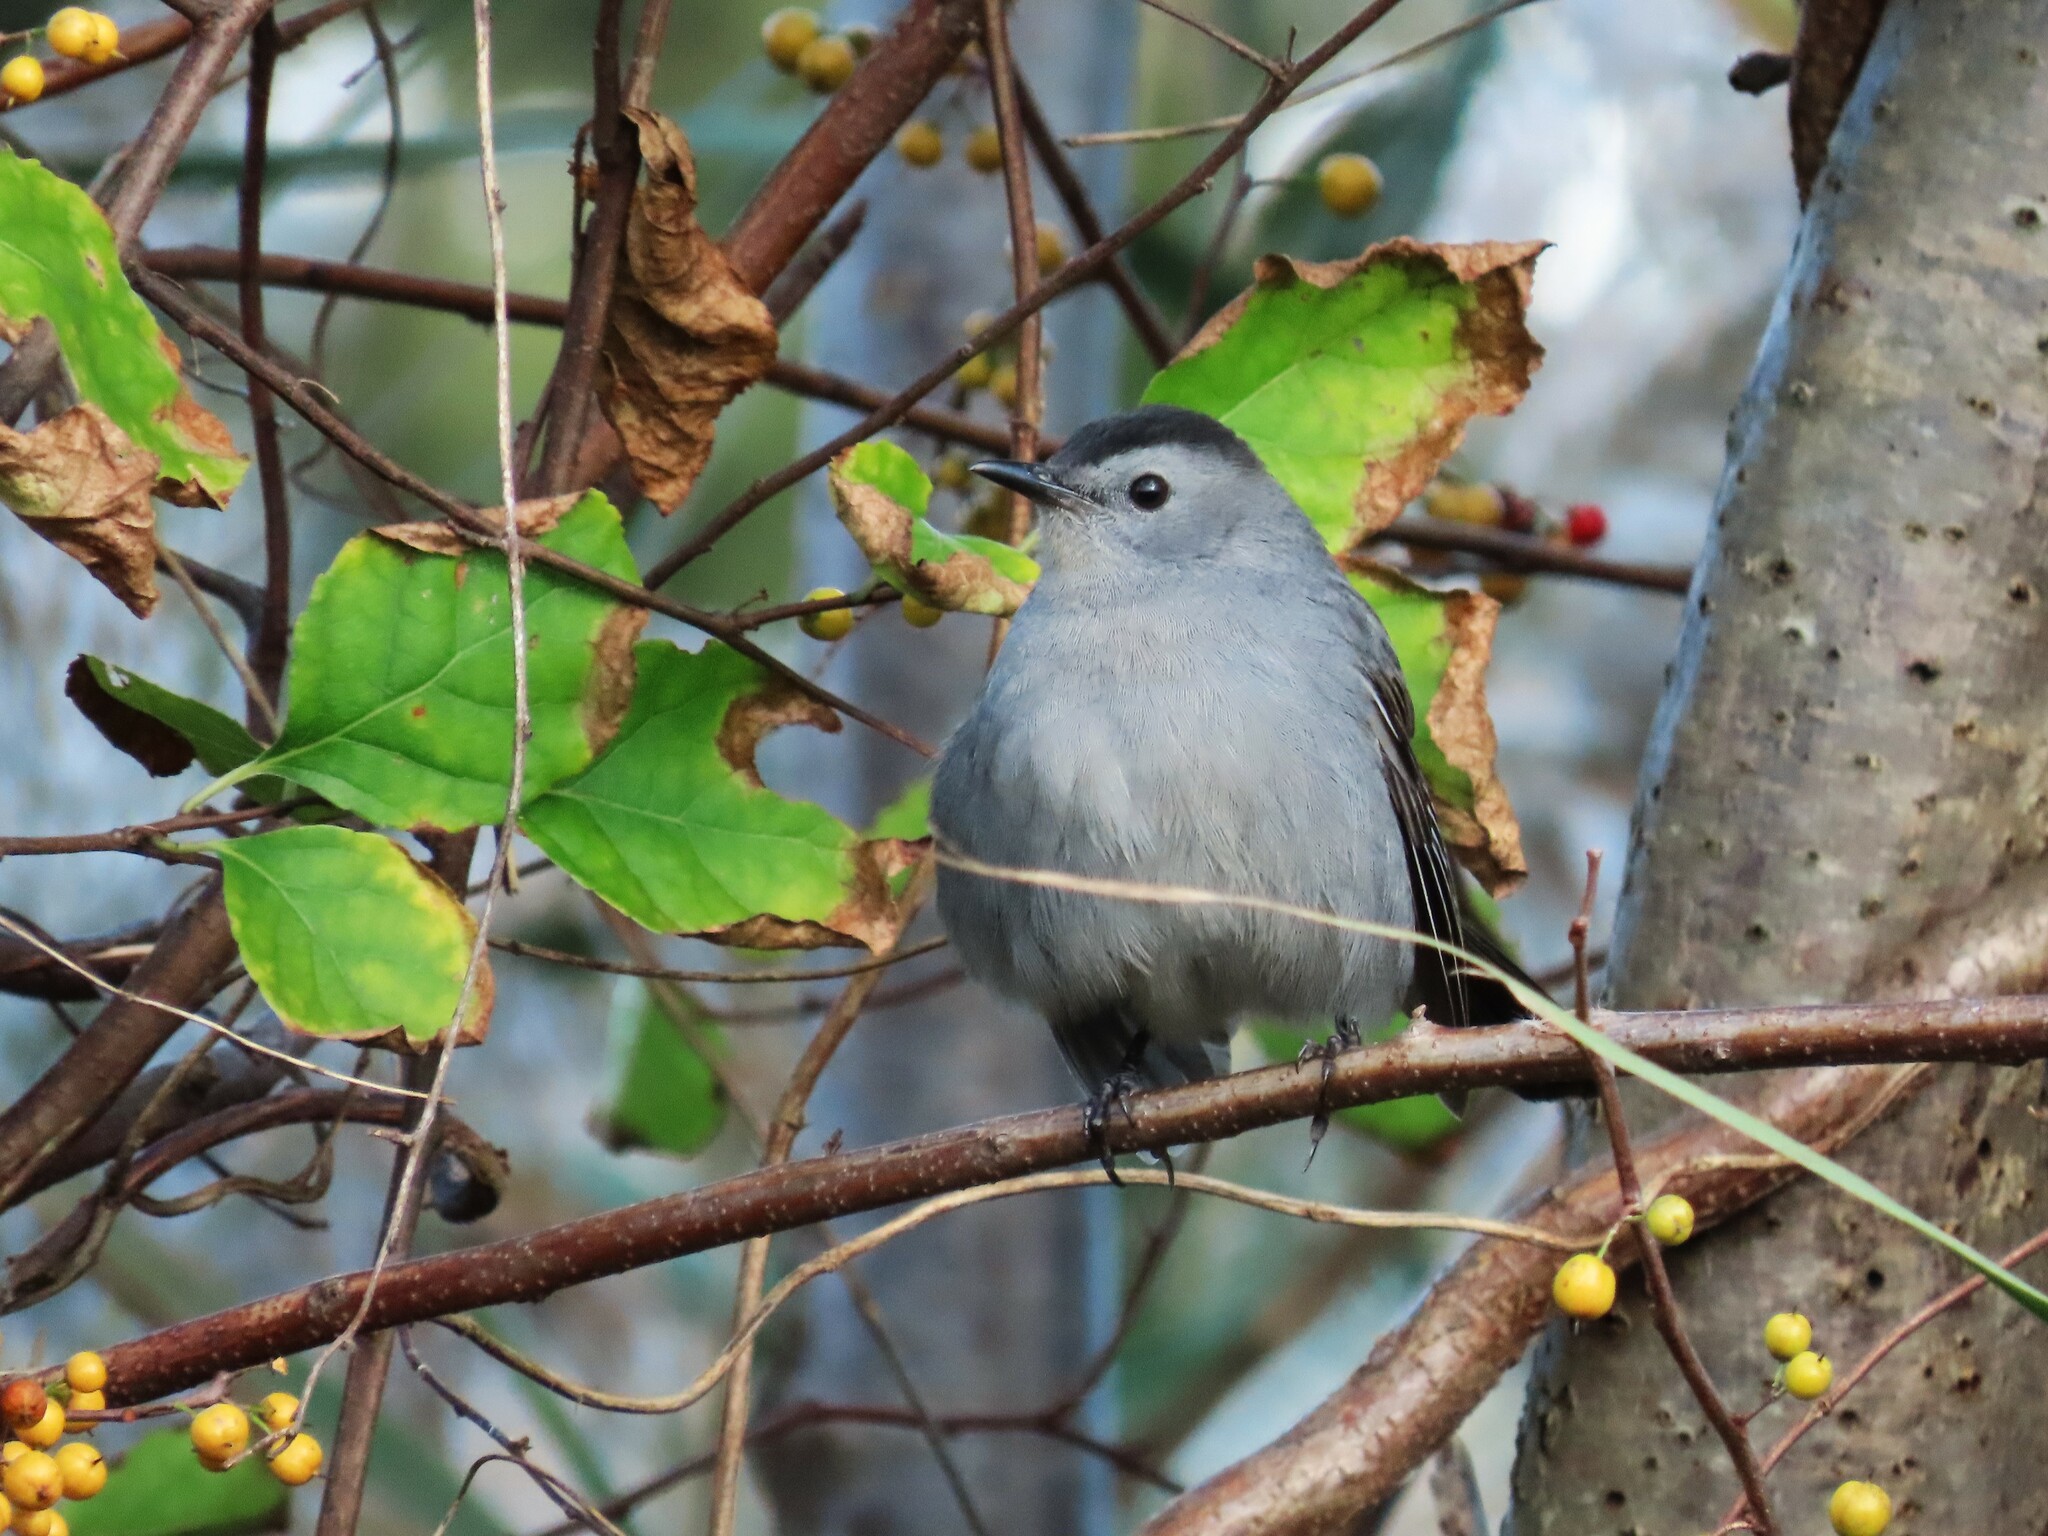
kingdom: Animalia
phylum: Chordata
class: Aves
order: Passeriformes
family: Mimidae
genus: Dumetella
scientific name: Dumetella carolinensis
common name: Gray catbird
